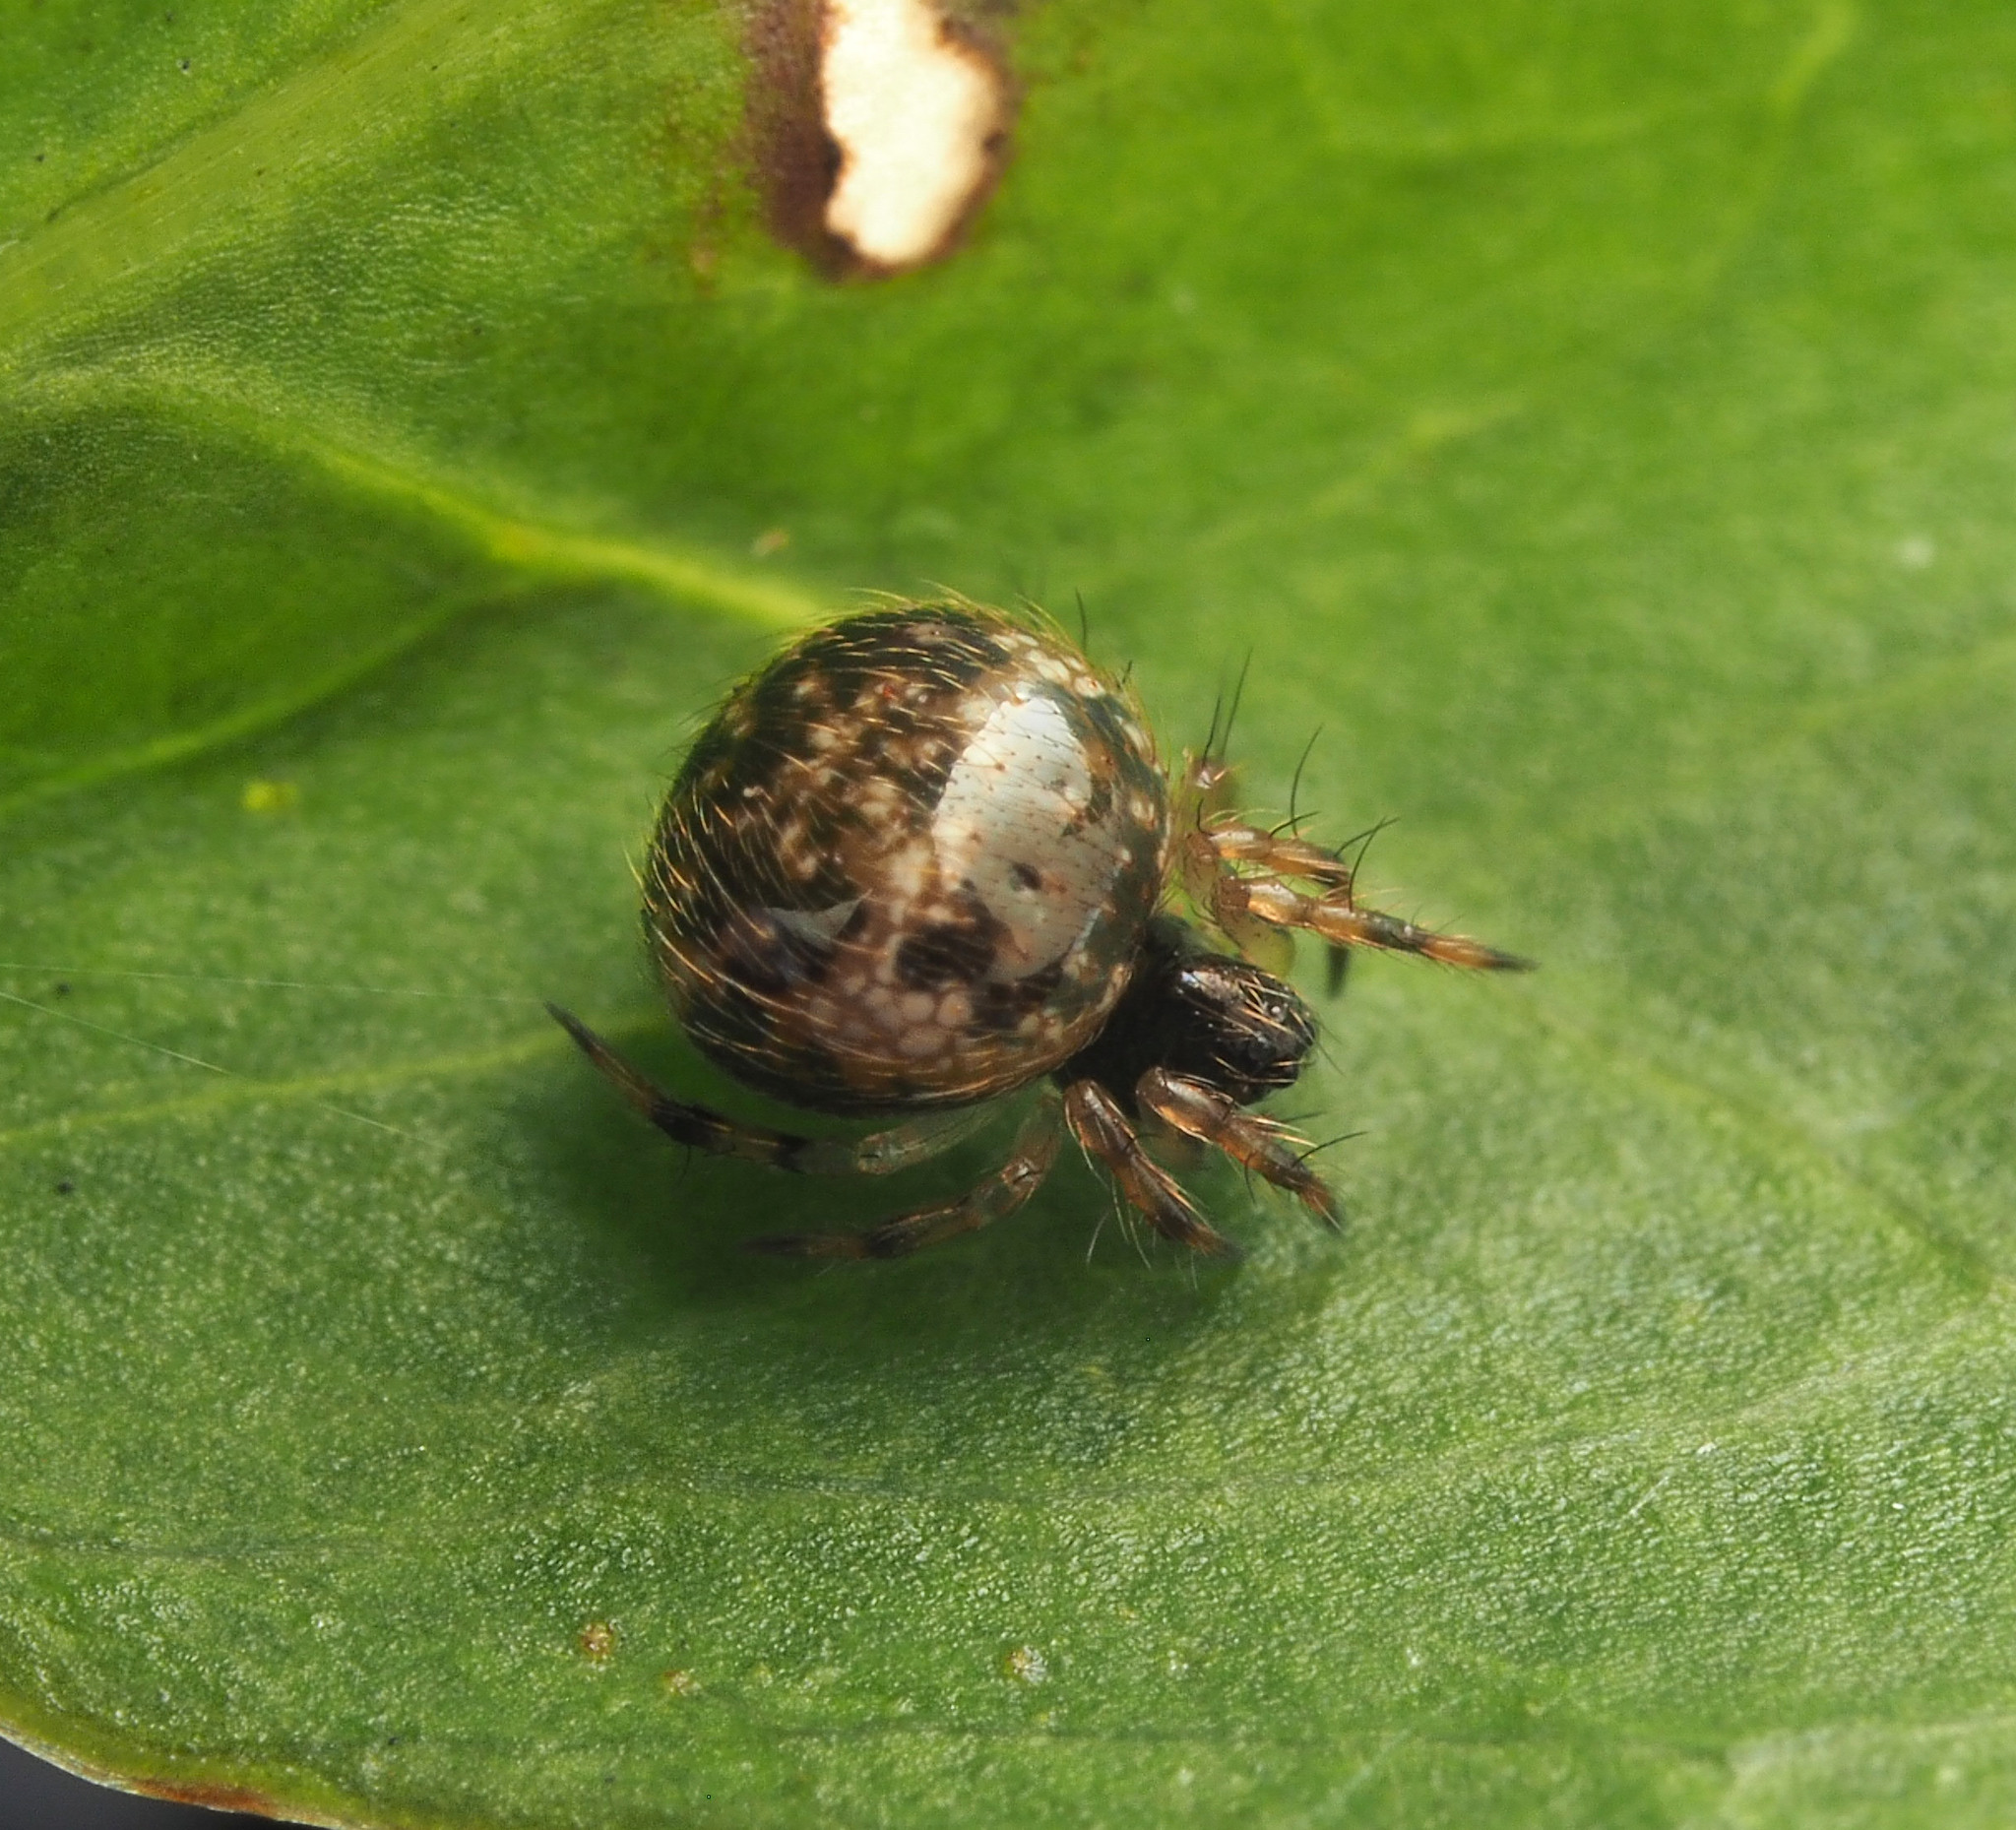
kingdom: Animalia
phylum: Arthropoda
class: Arachnida
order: Araneae
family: Theridiidae
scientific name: Theridiidae
